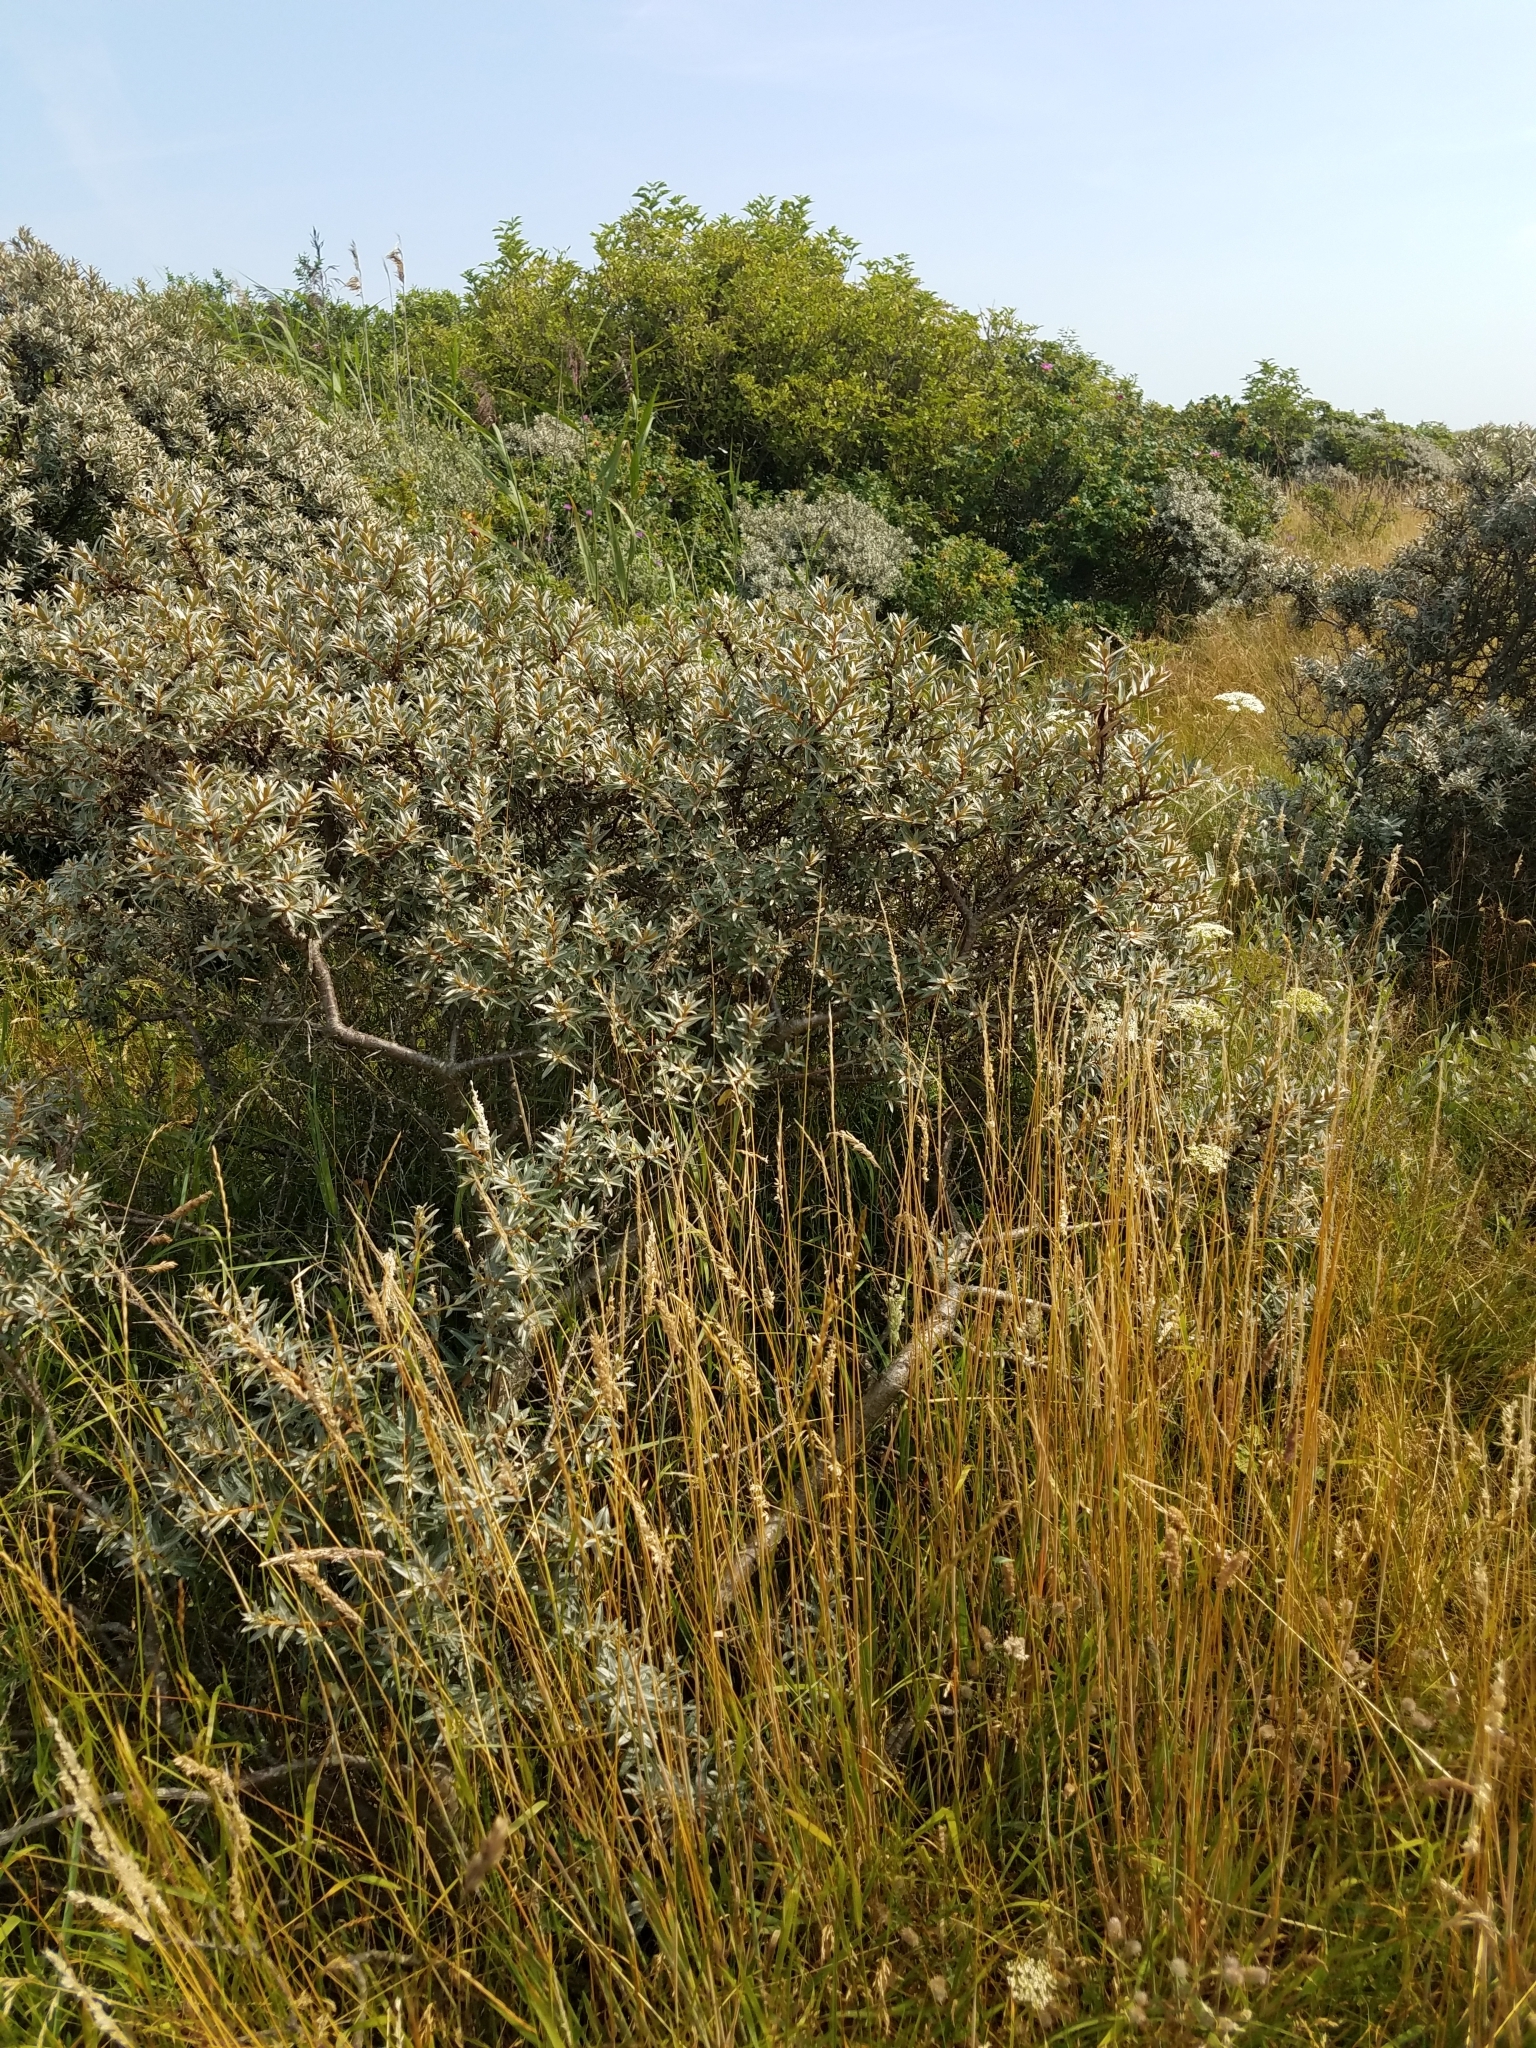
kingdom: Plantae
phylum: Tracheophyta
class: Magnoliopsida
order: Rosales
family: Elaeagnaceae
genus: Hippophae
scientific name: Hippophae rhamnoides
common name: Sea-buckthorn
